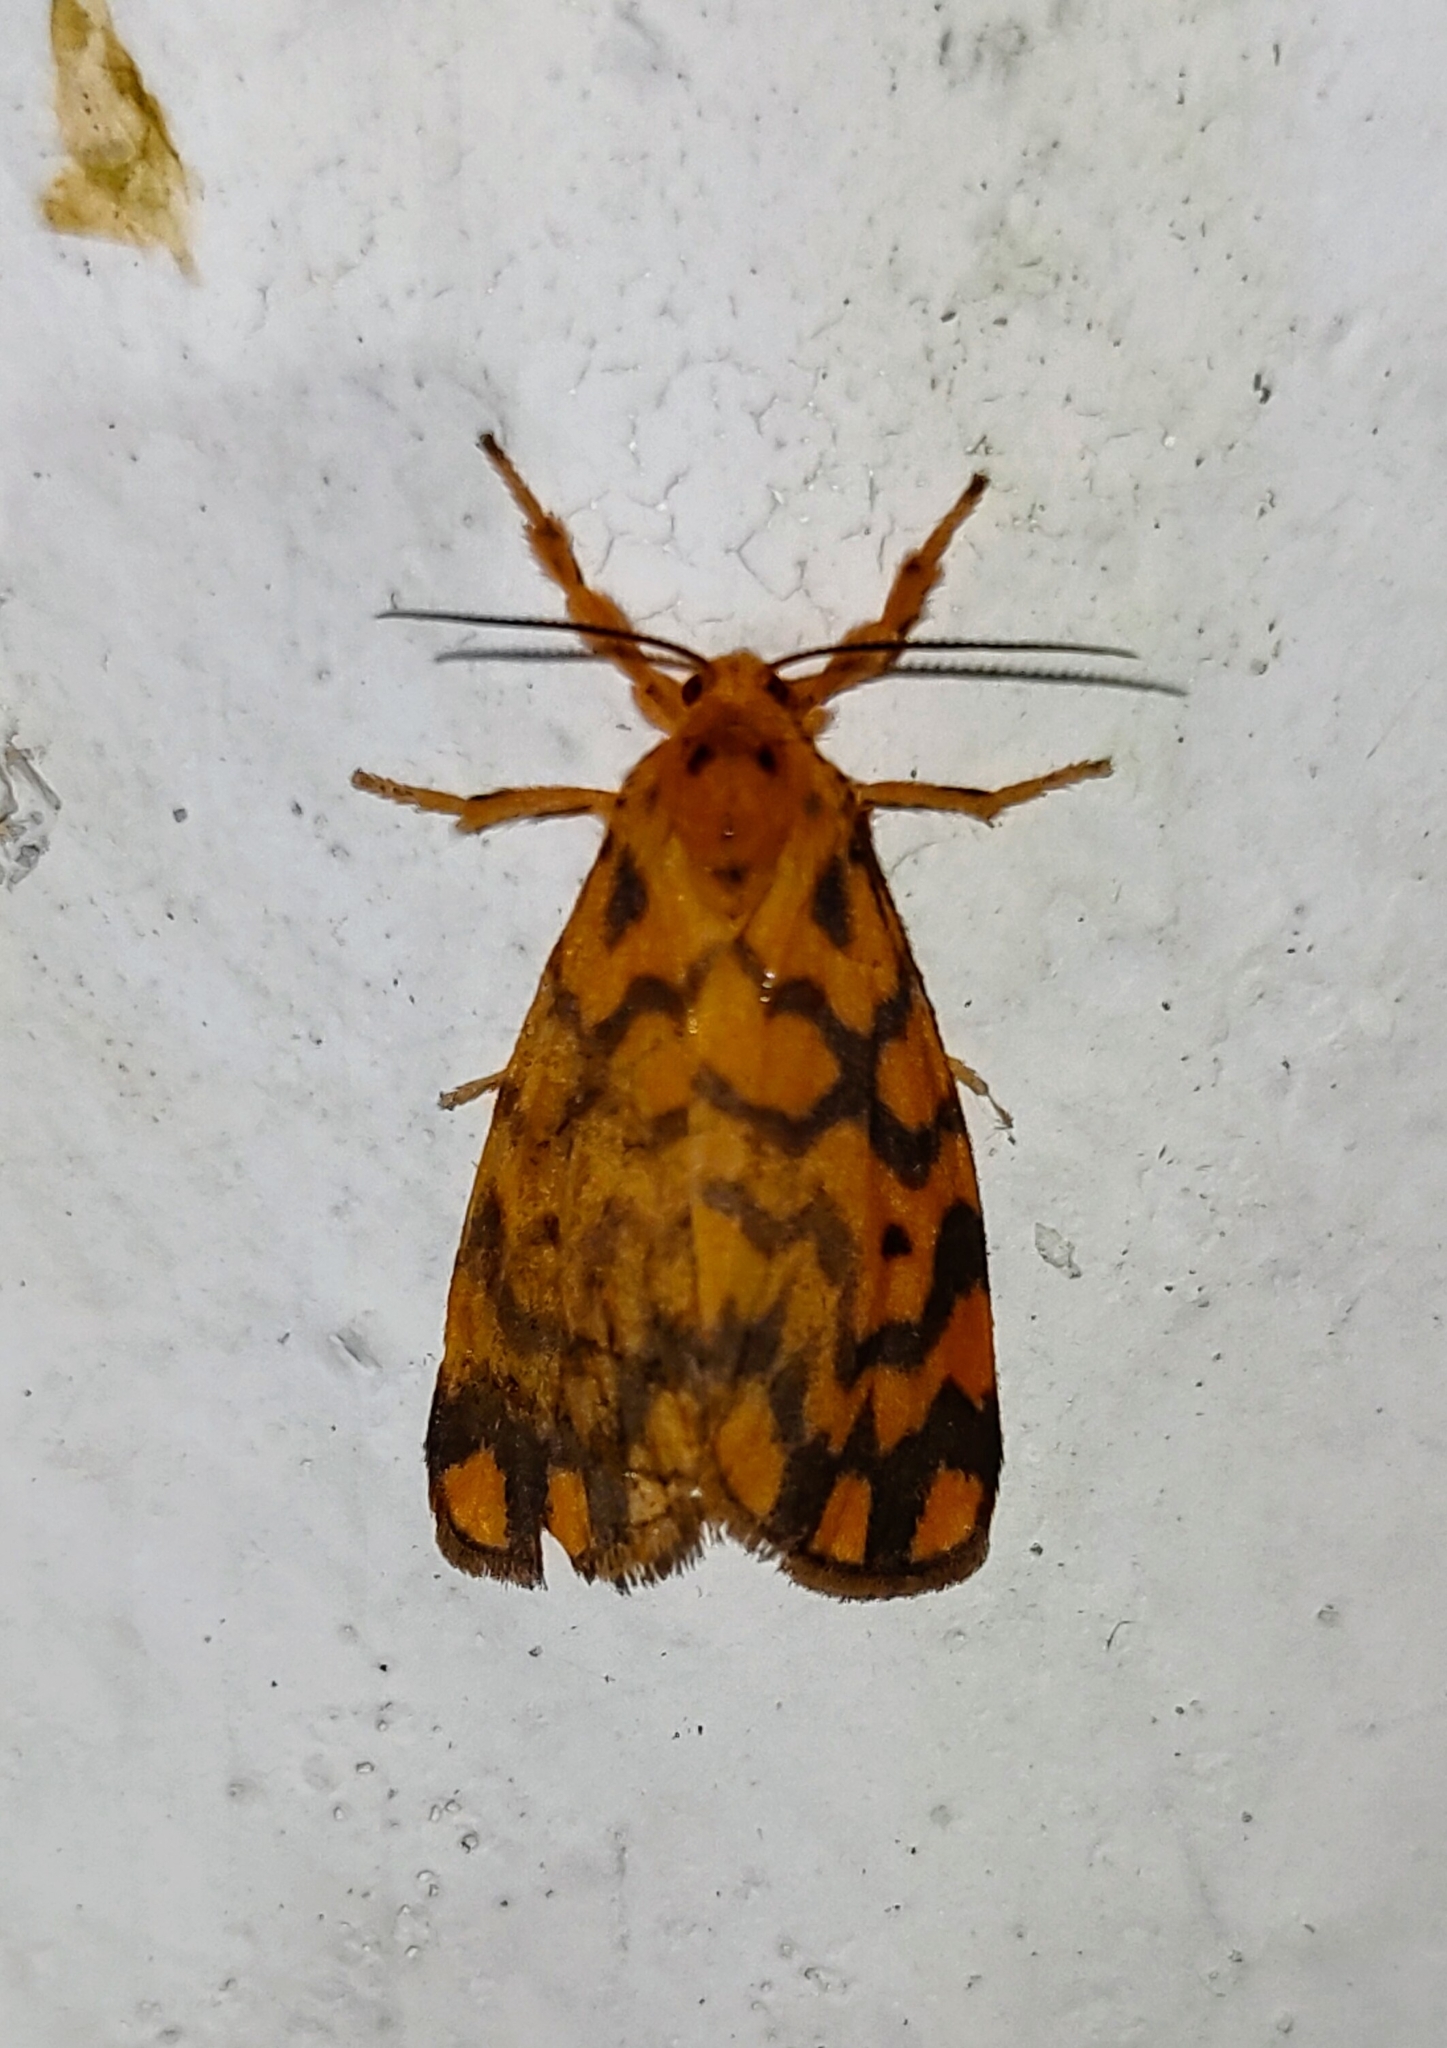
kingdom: Animalia
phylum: Arthropoda
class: Insecta
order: Lepidoptera
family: Erebidae
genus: Nepita
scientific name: Nepita conferta
